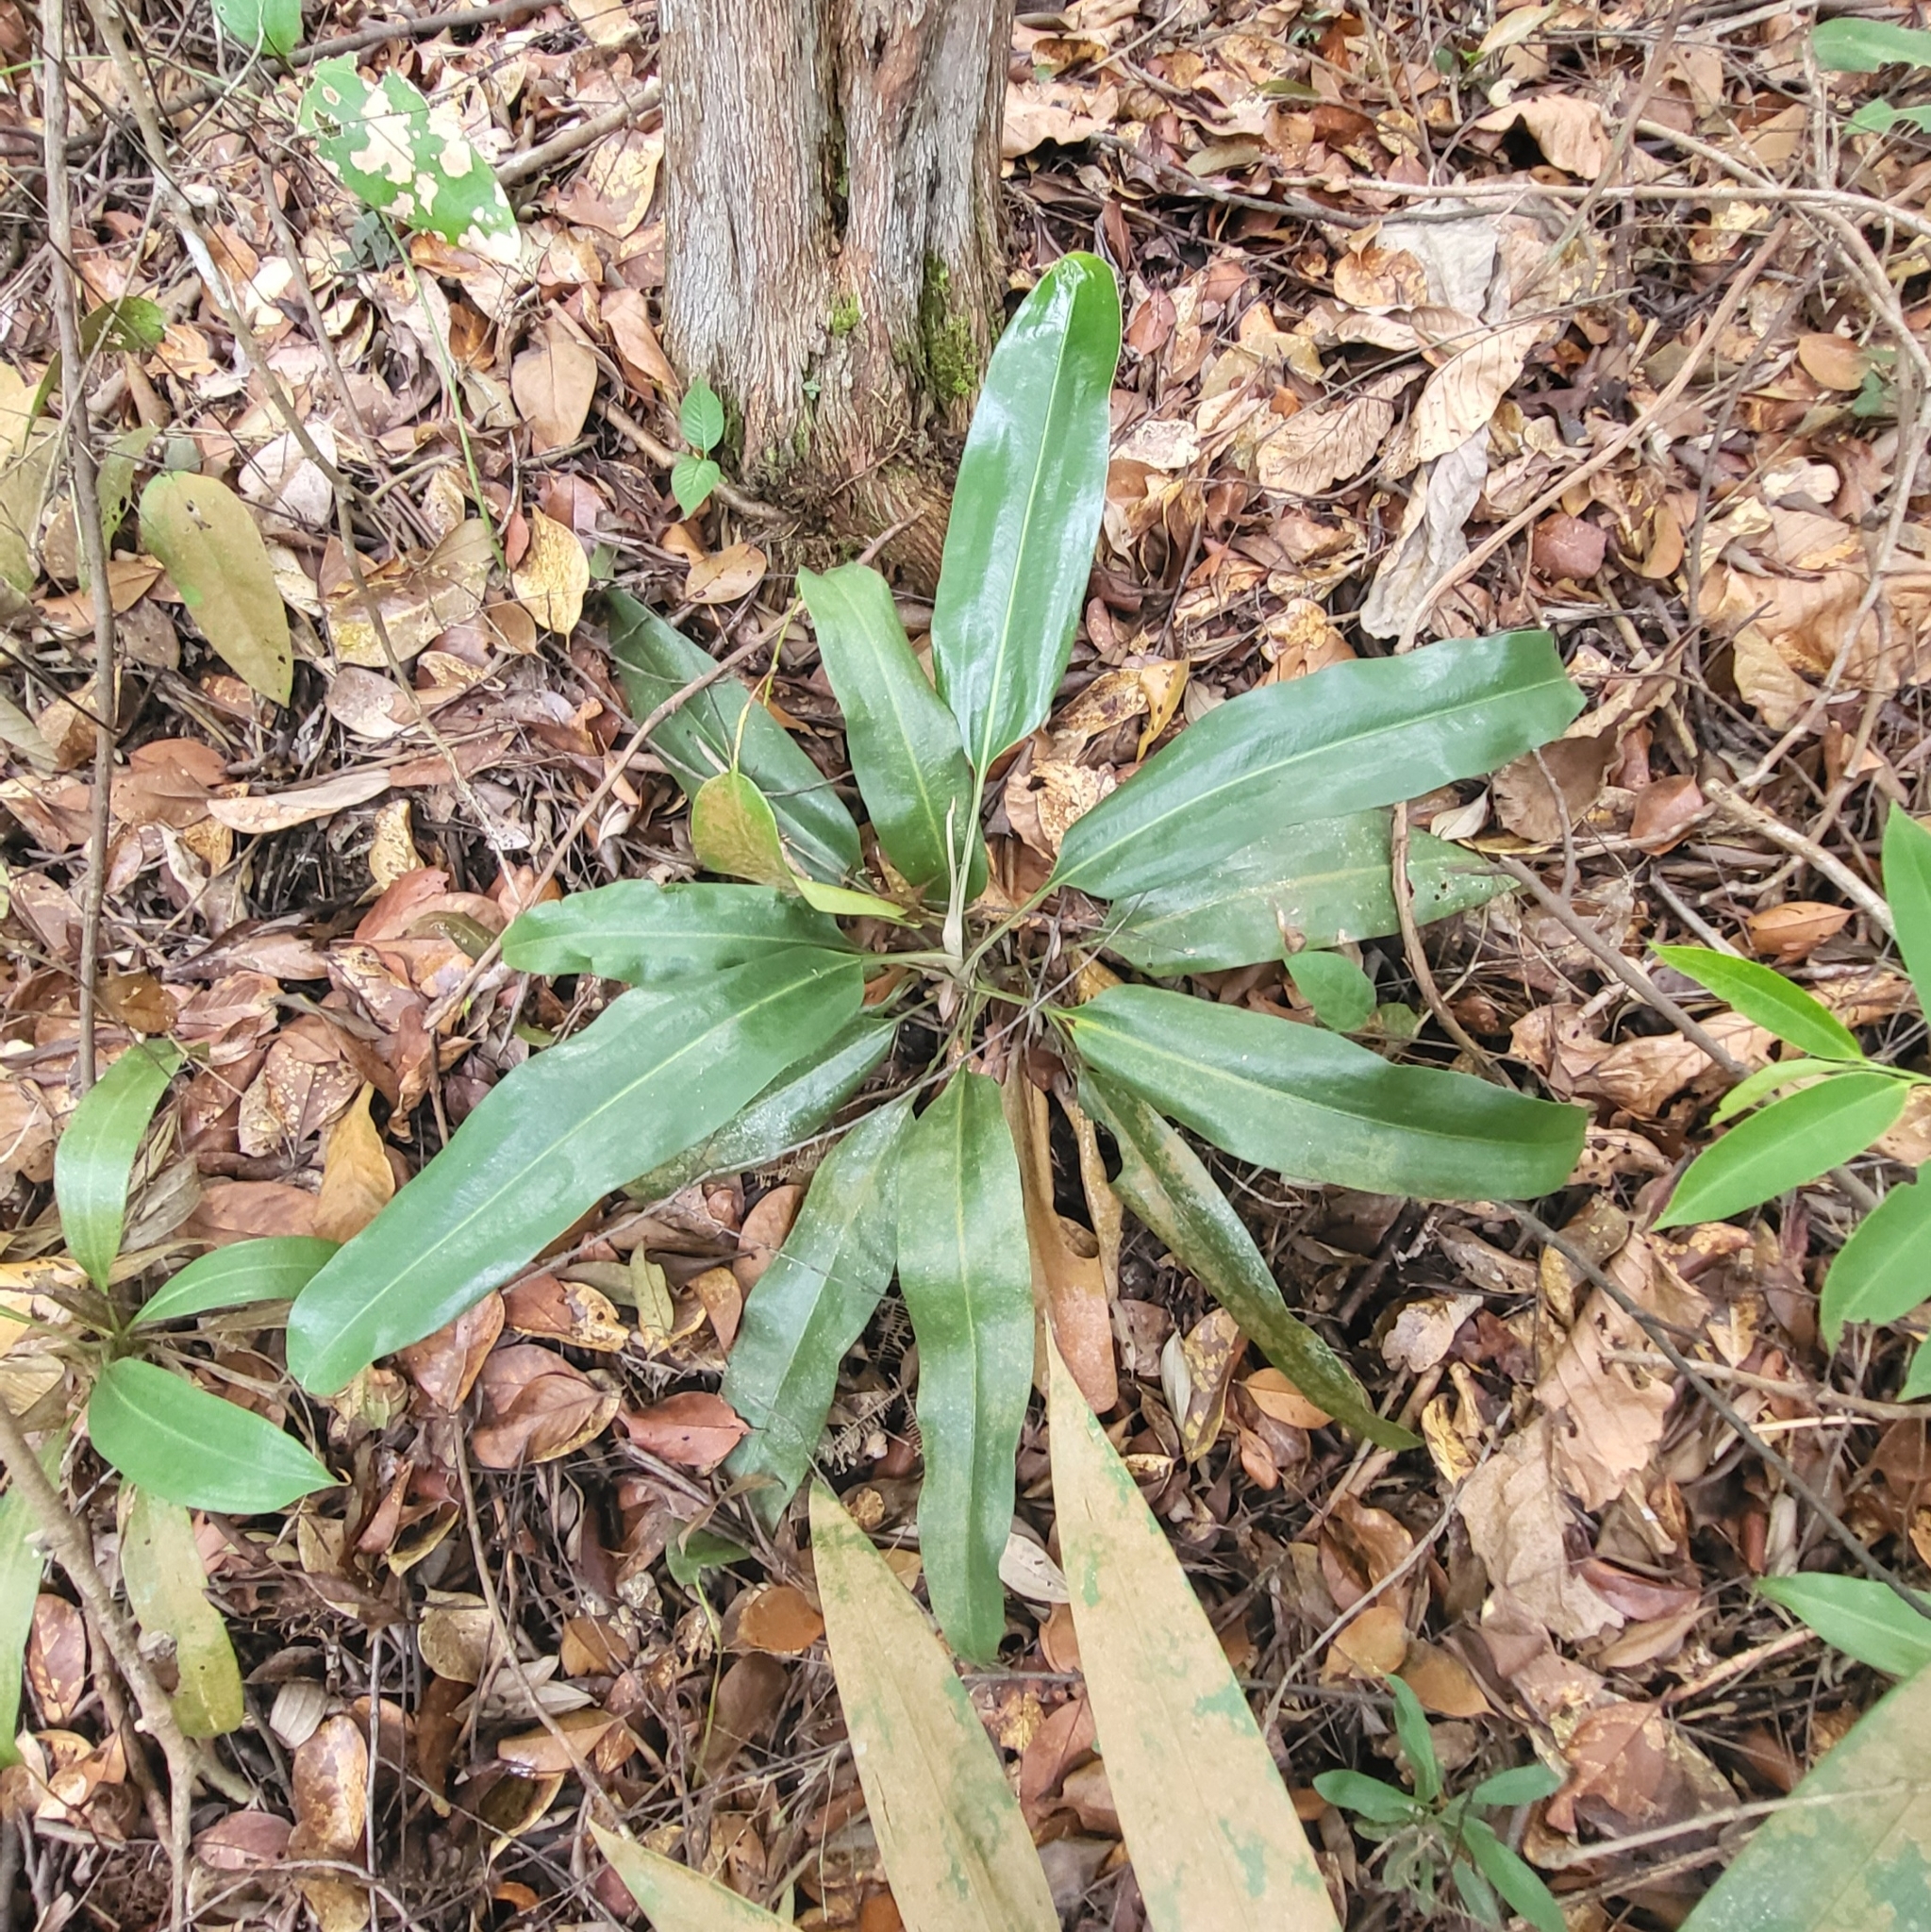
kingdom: Plantae
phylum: Tracheophyta
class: Magnoliopsida
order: Caryophyllales
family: Nepenthaceae
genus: Nepenthes
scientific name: Nepenthes rafflesiana
